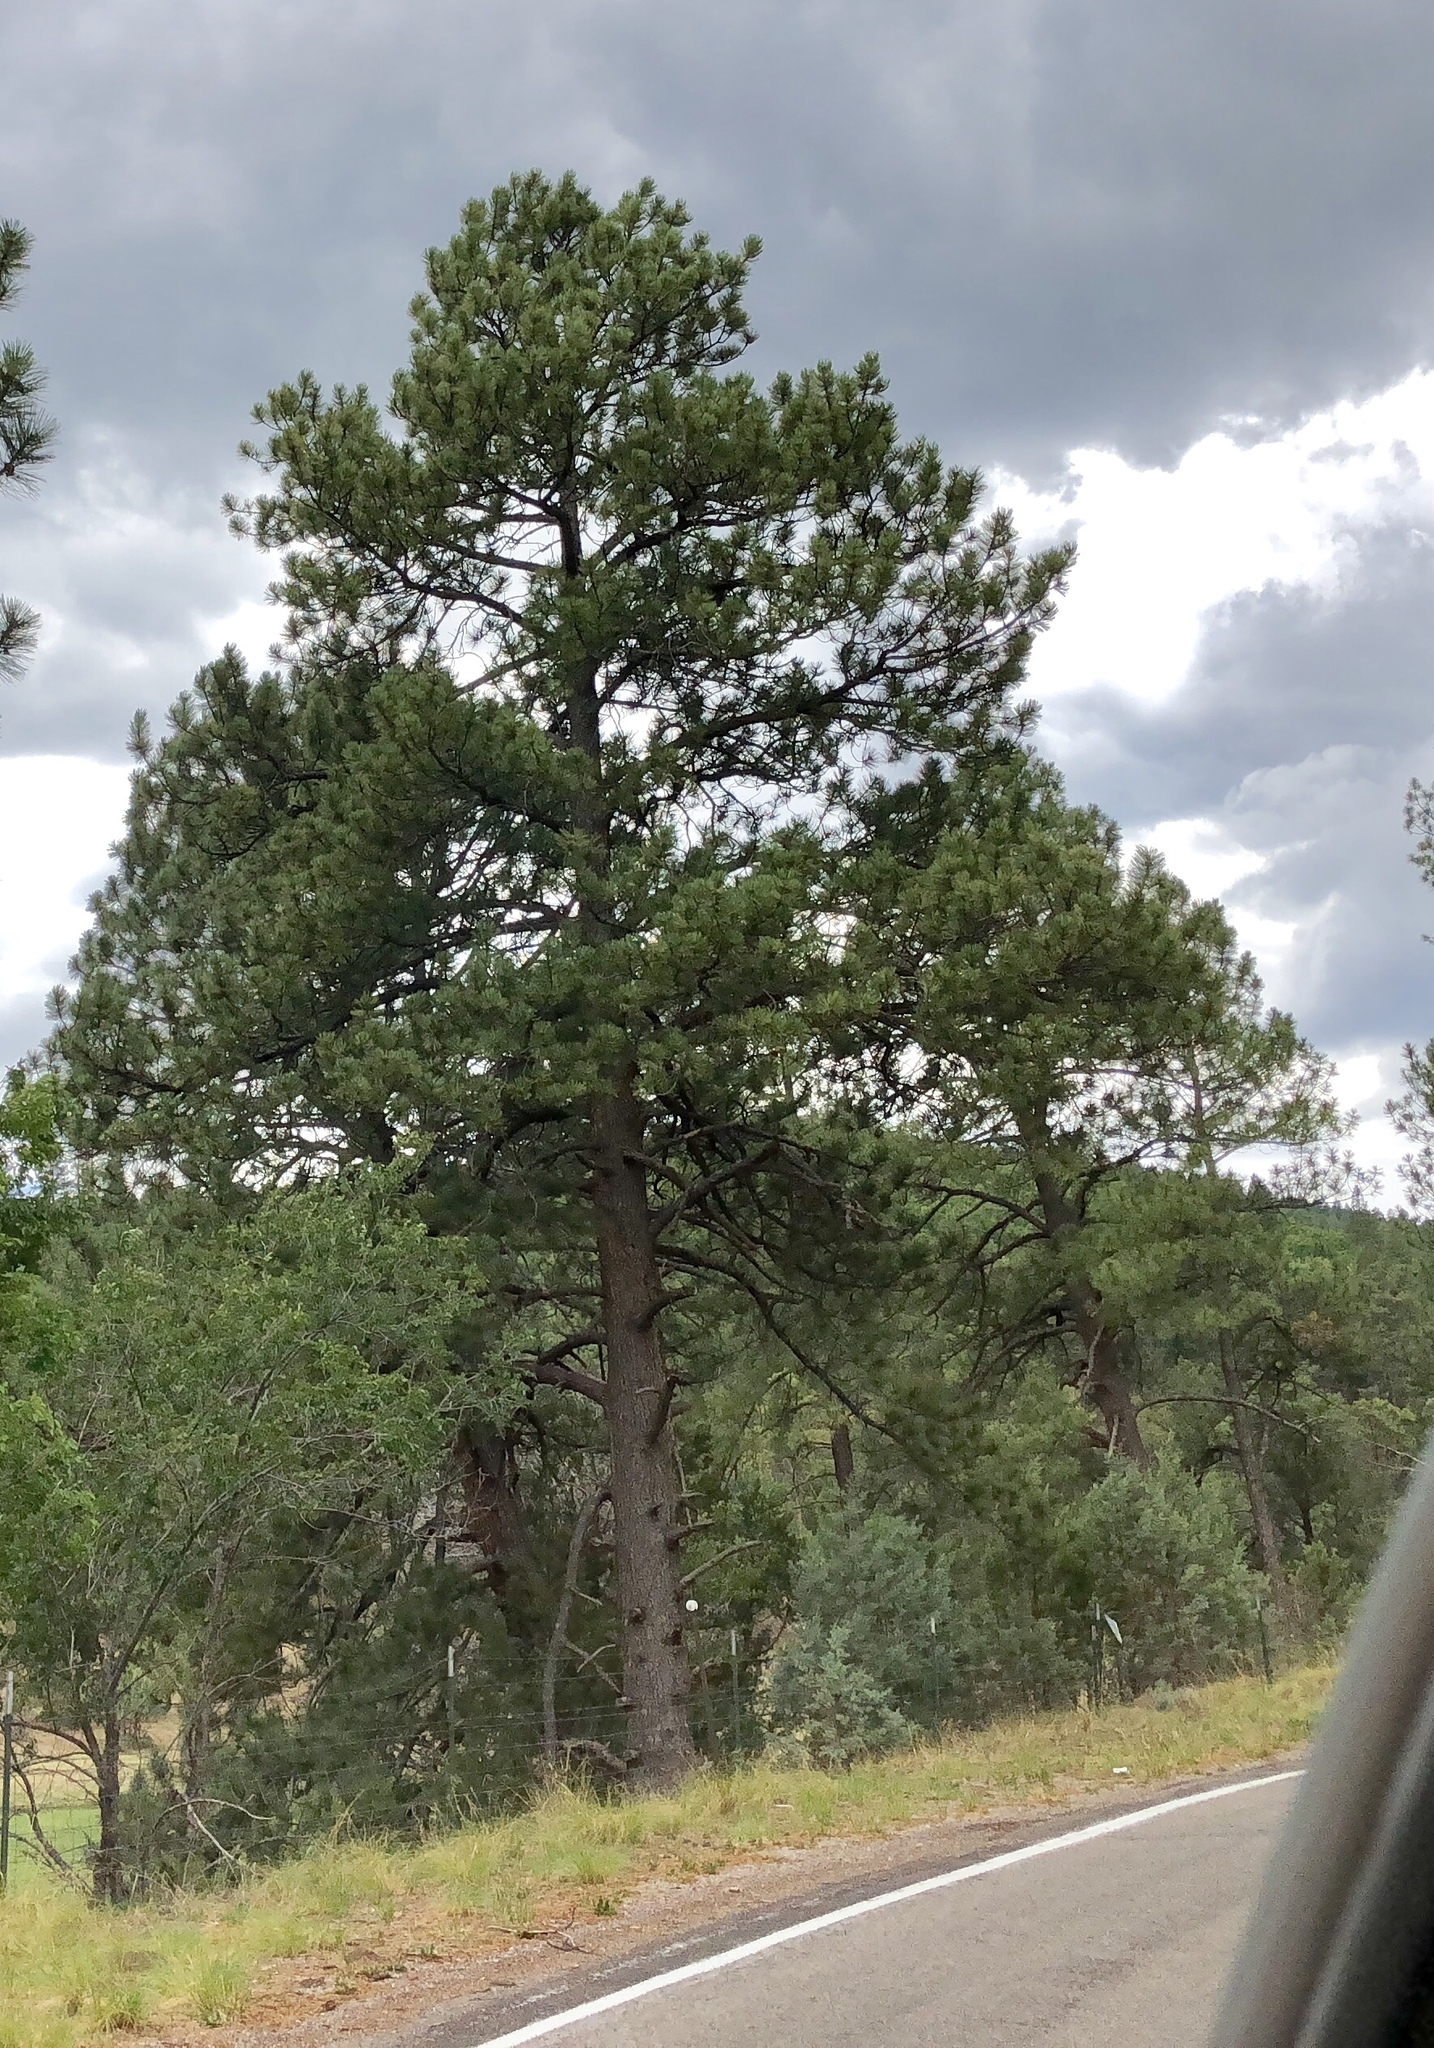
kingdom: Plantae
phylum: Tracheophyta
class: Pinopsida
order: Pinales
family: Pinaceae
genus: Pinus
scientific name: Pinus ponderosa
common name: Western yellow-pine
